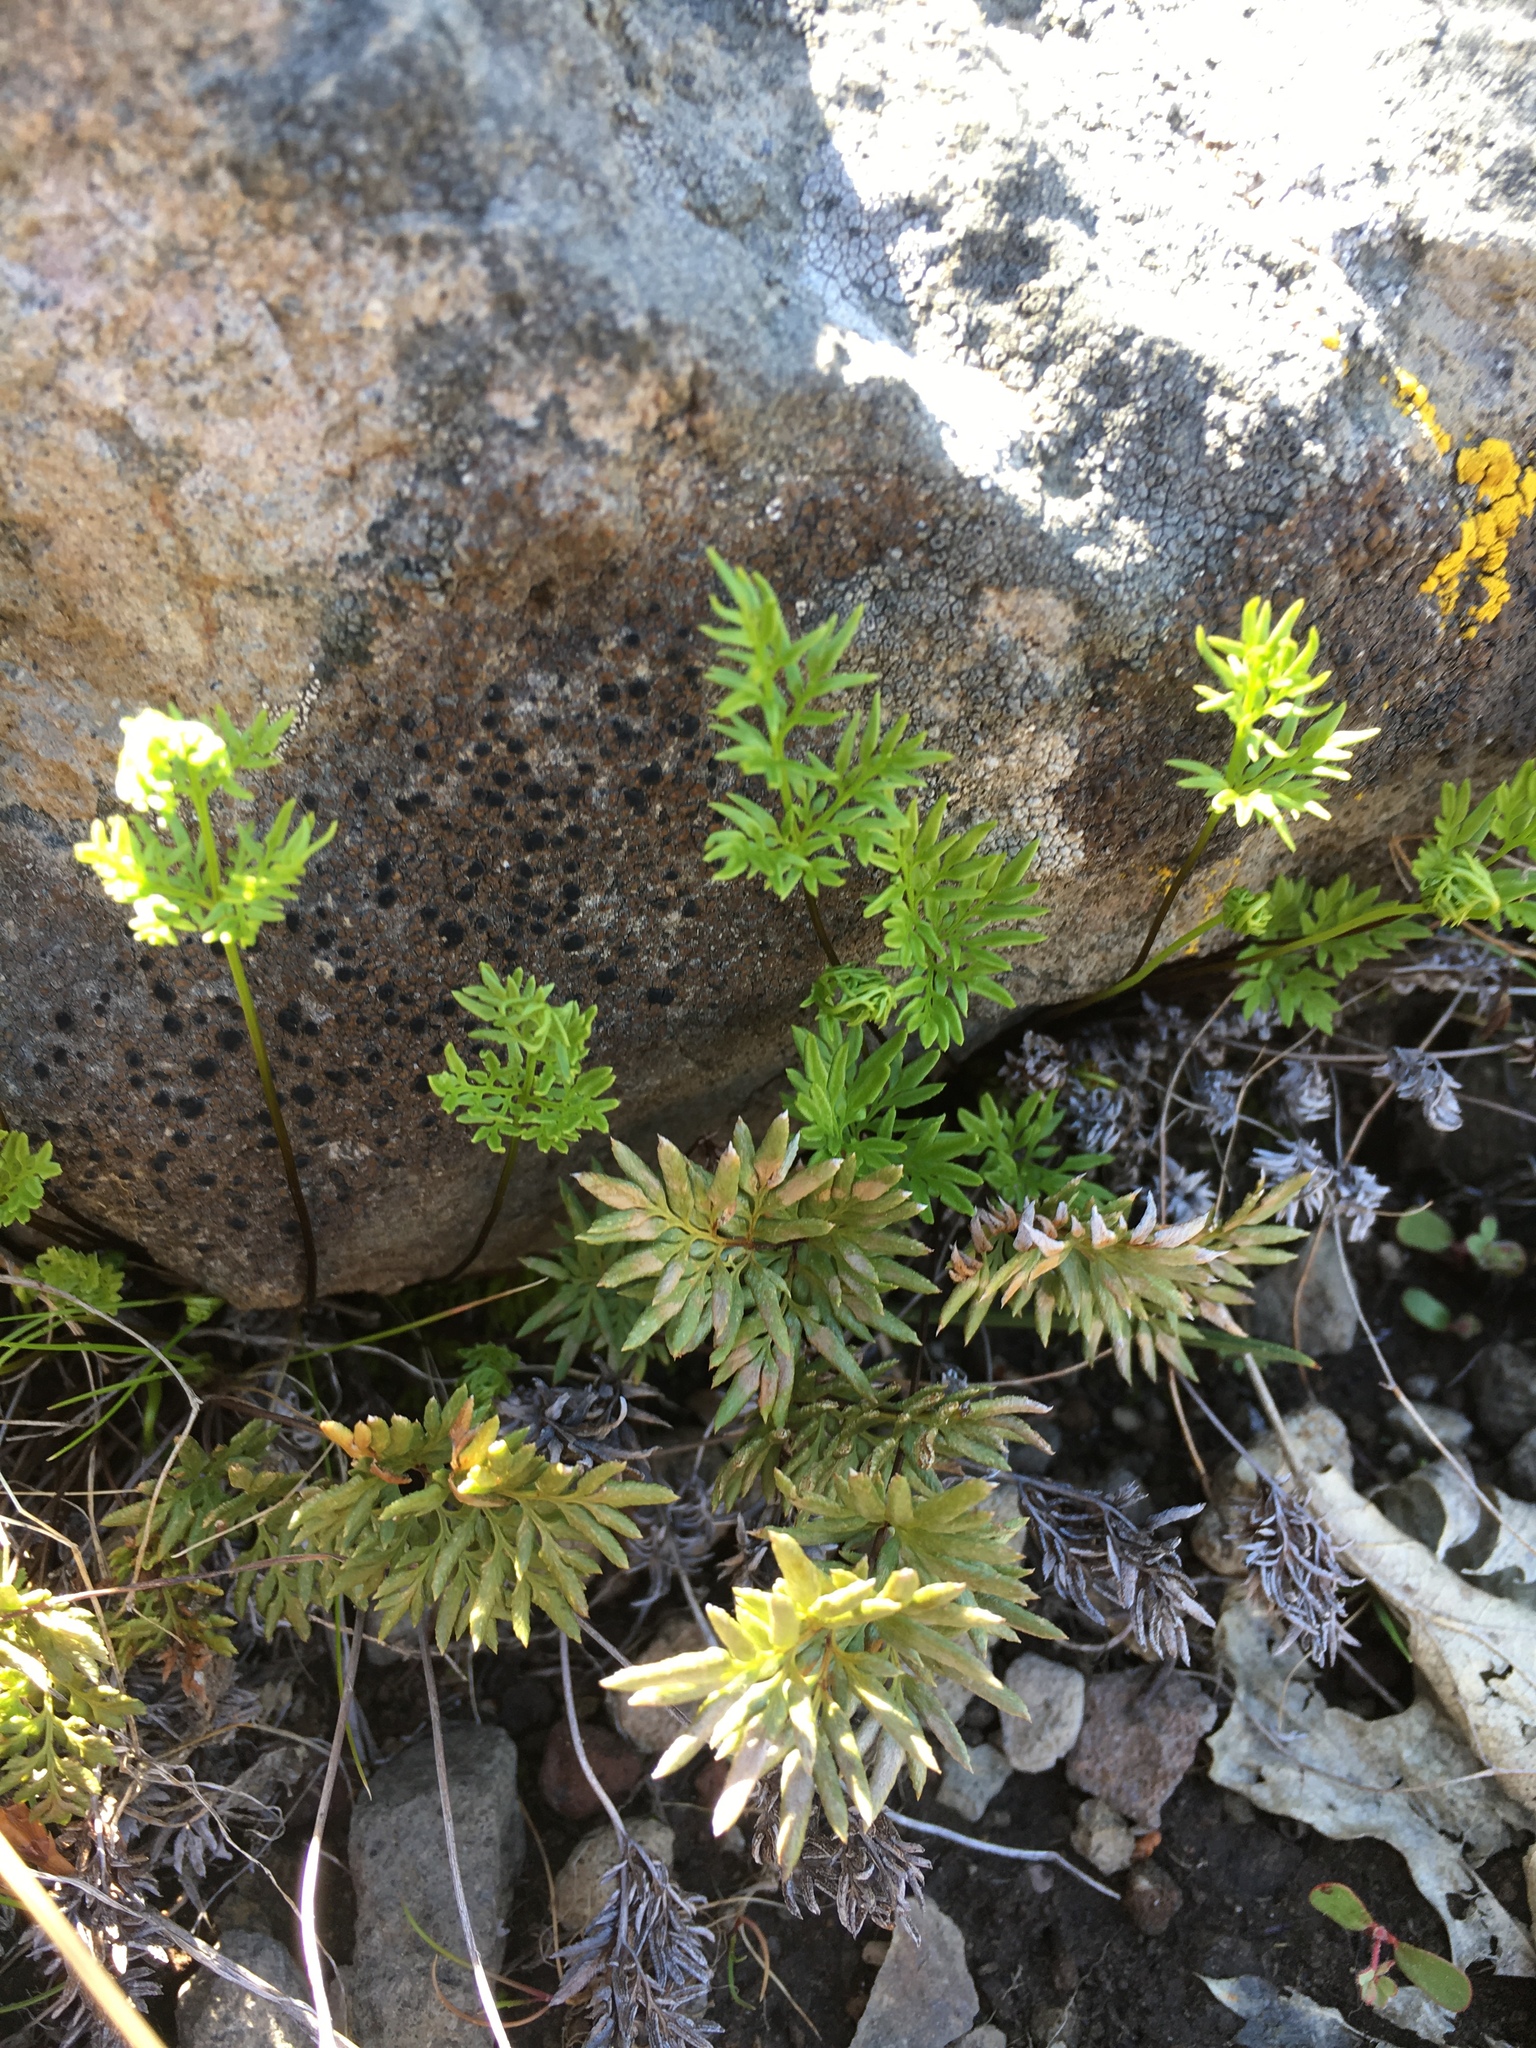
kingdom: Plantae
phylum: Tracheophyta
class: Polypodiopsida
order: Polypodiales
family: Pteridaceae
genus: Aspidotis
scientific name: Aspidotis densa
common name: Indian's dream
